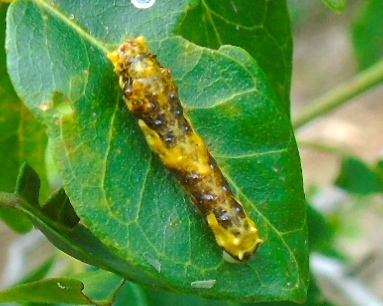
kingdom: Animalia
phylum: Arthropoda
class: Insecta
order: Lepidoptera
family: Papilionidae
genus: Papilio
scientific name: Papilio
